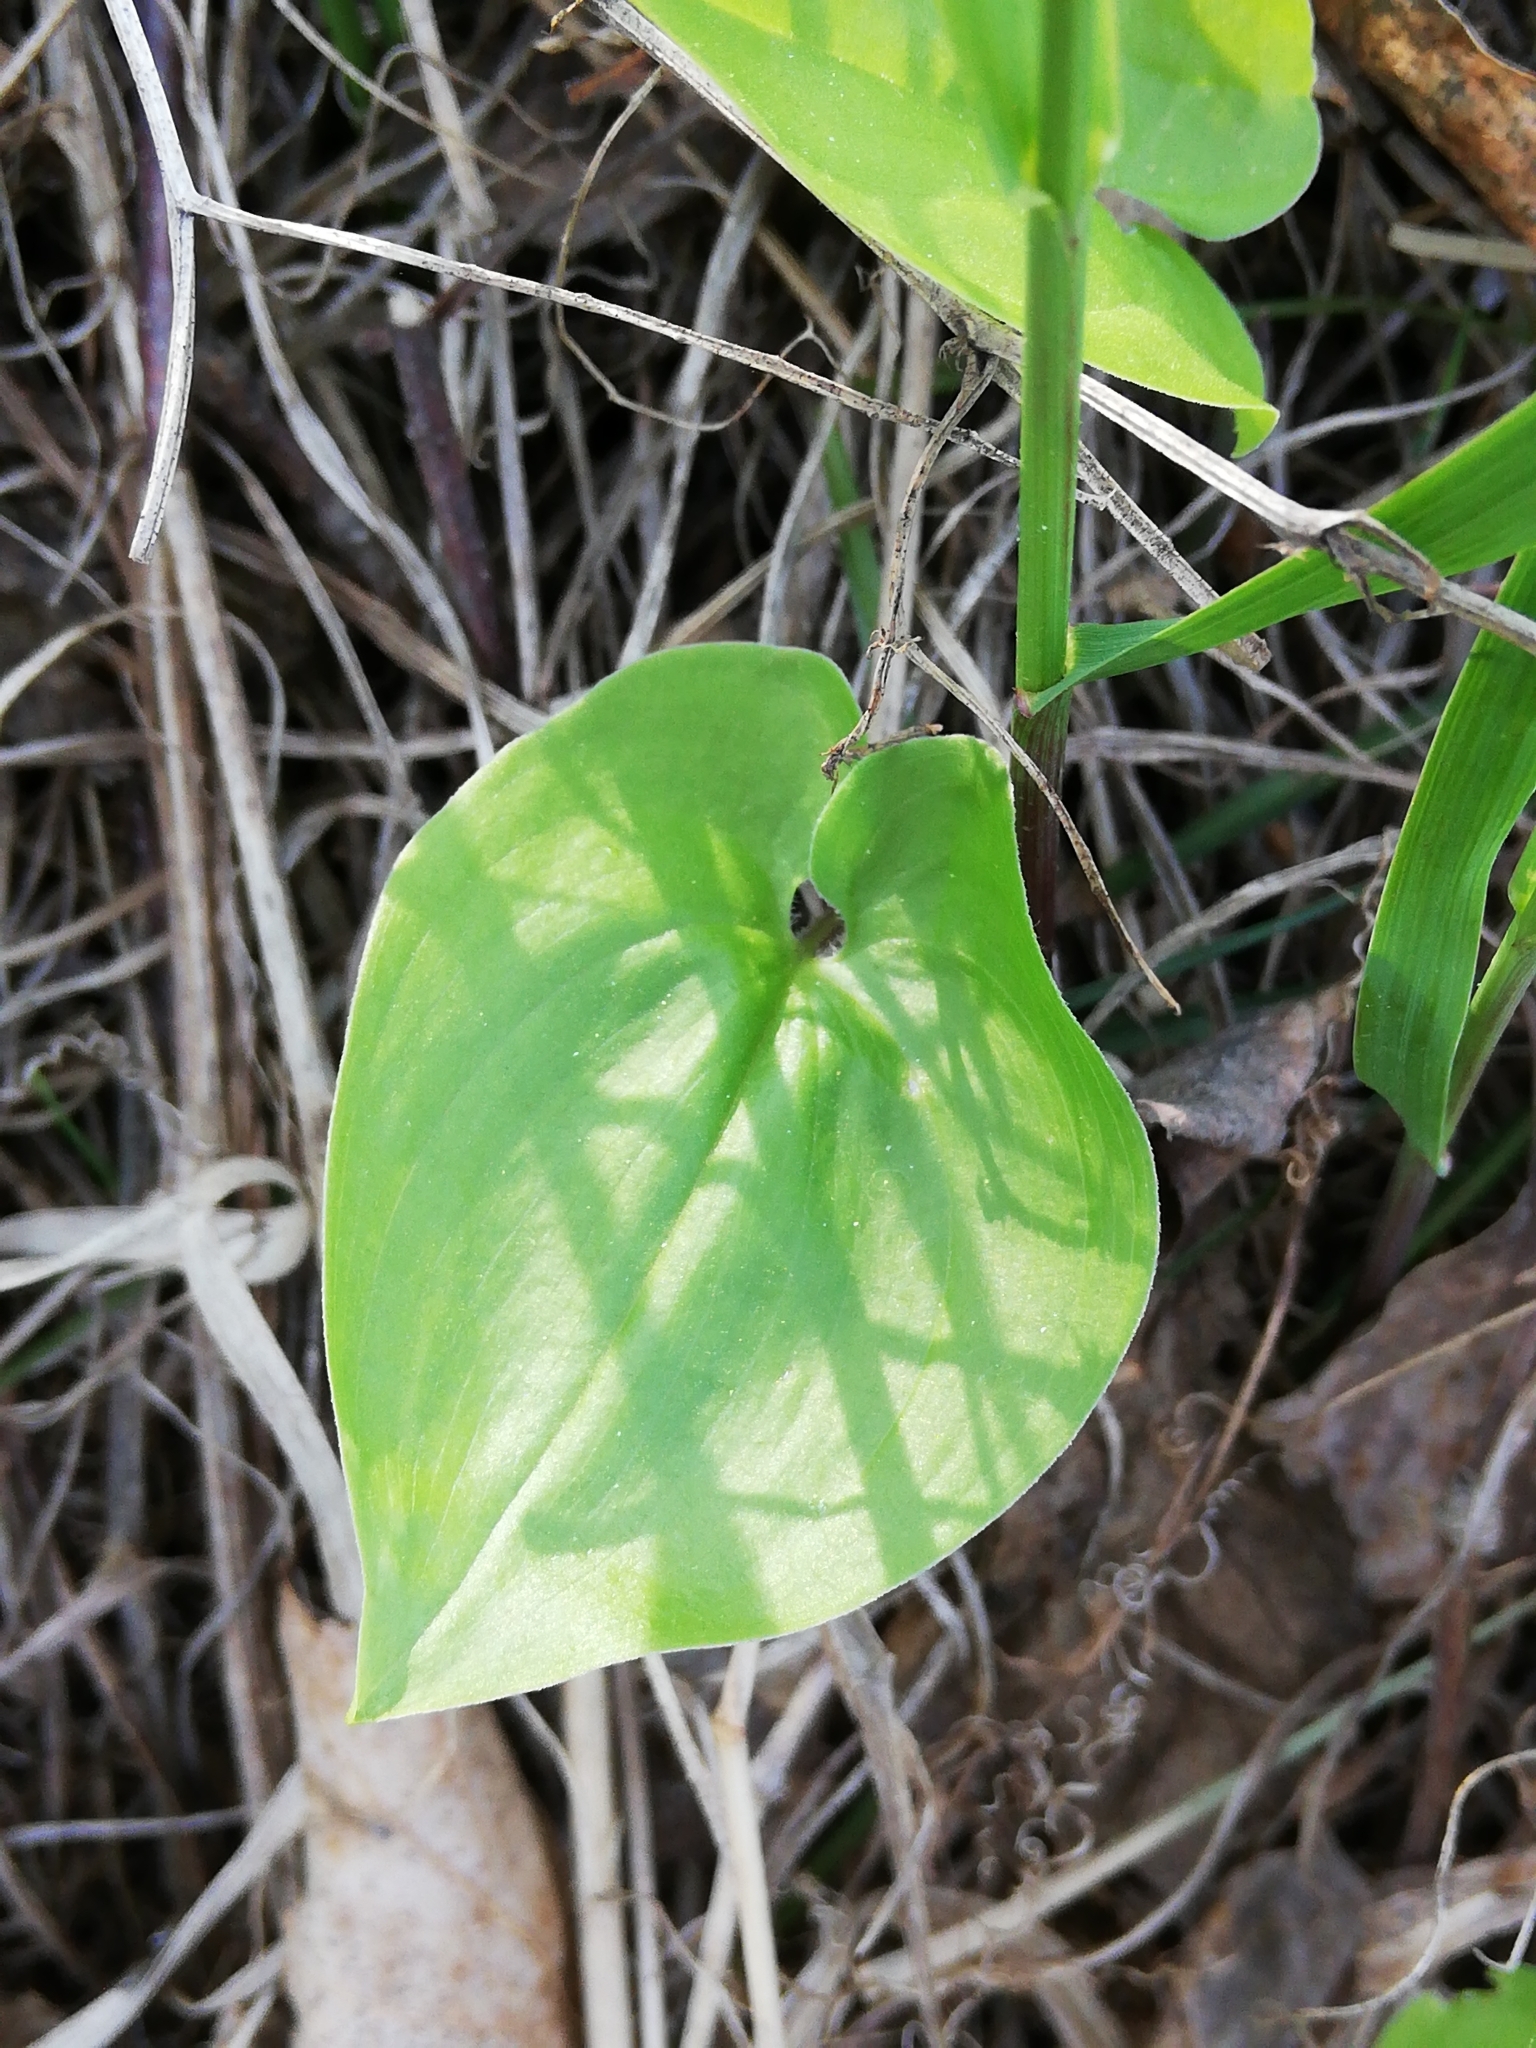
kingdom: Plantae
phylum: Tracheophyta
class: Liliopsida
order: Asparagales
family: Asparagaceae
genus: Maianthemum
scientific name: Maianthemum bifolium
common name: May lily
